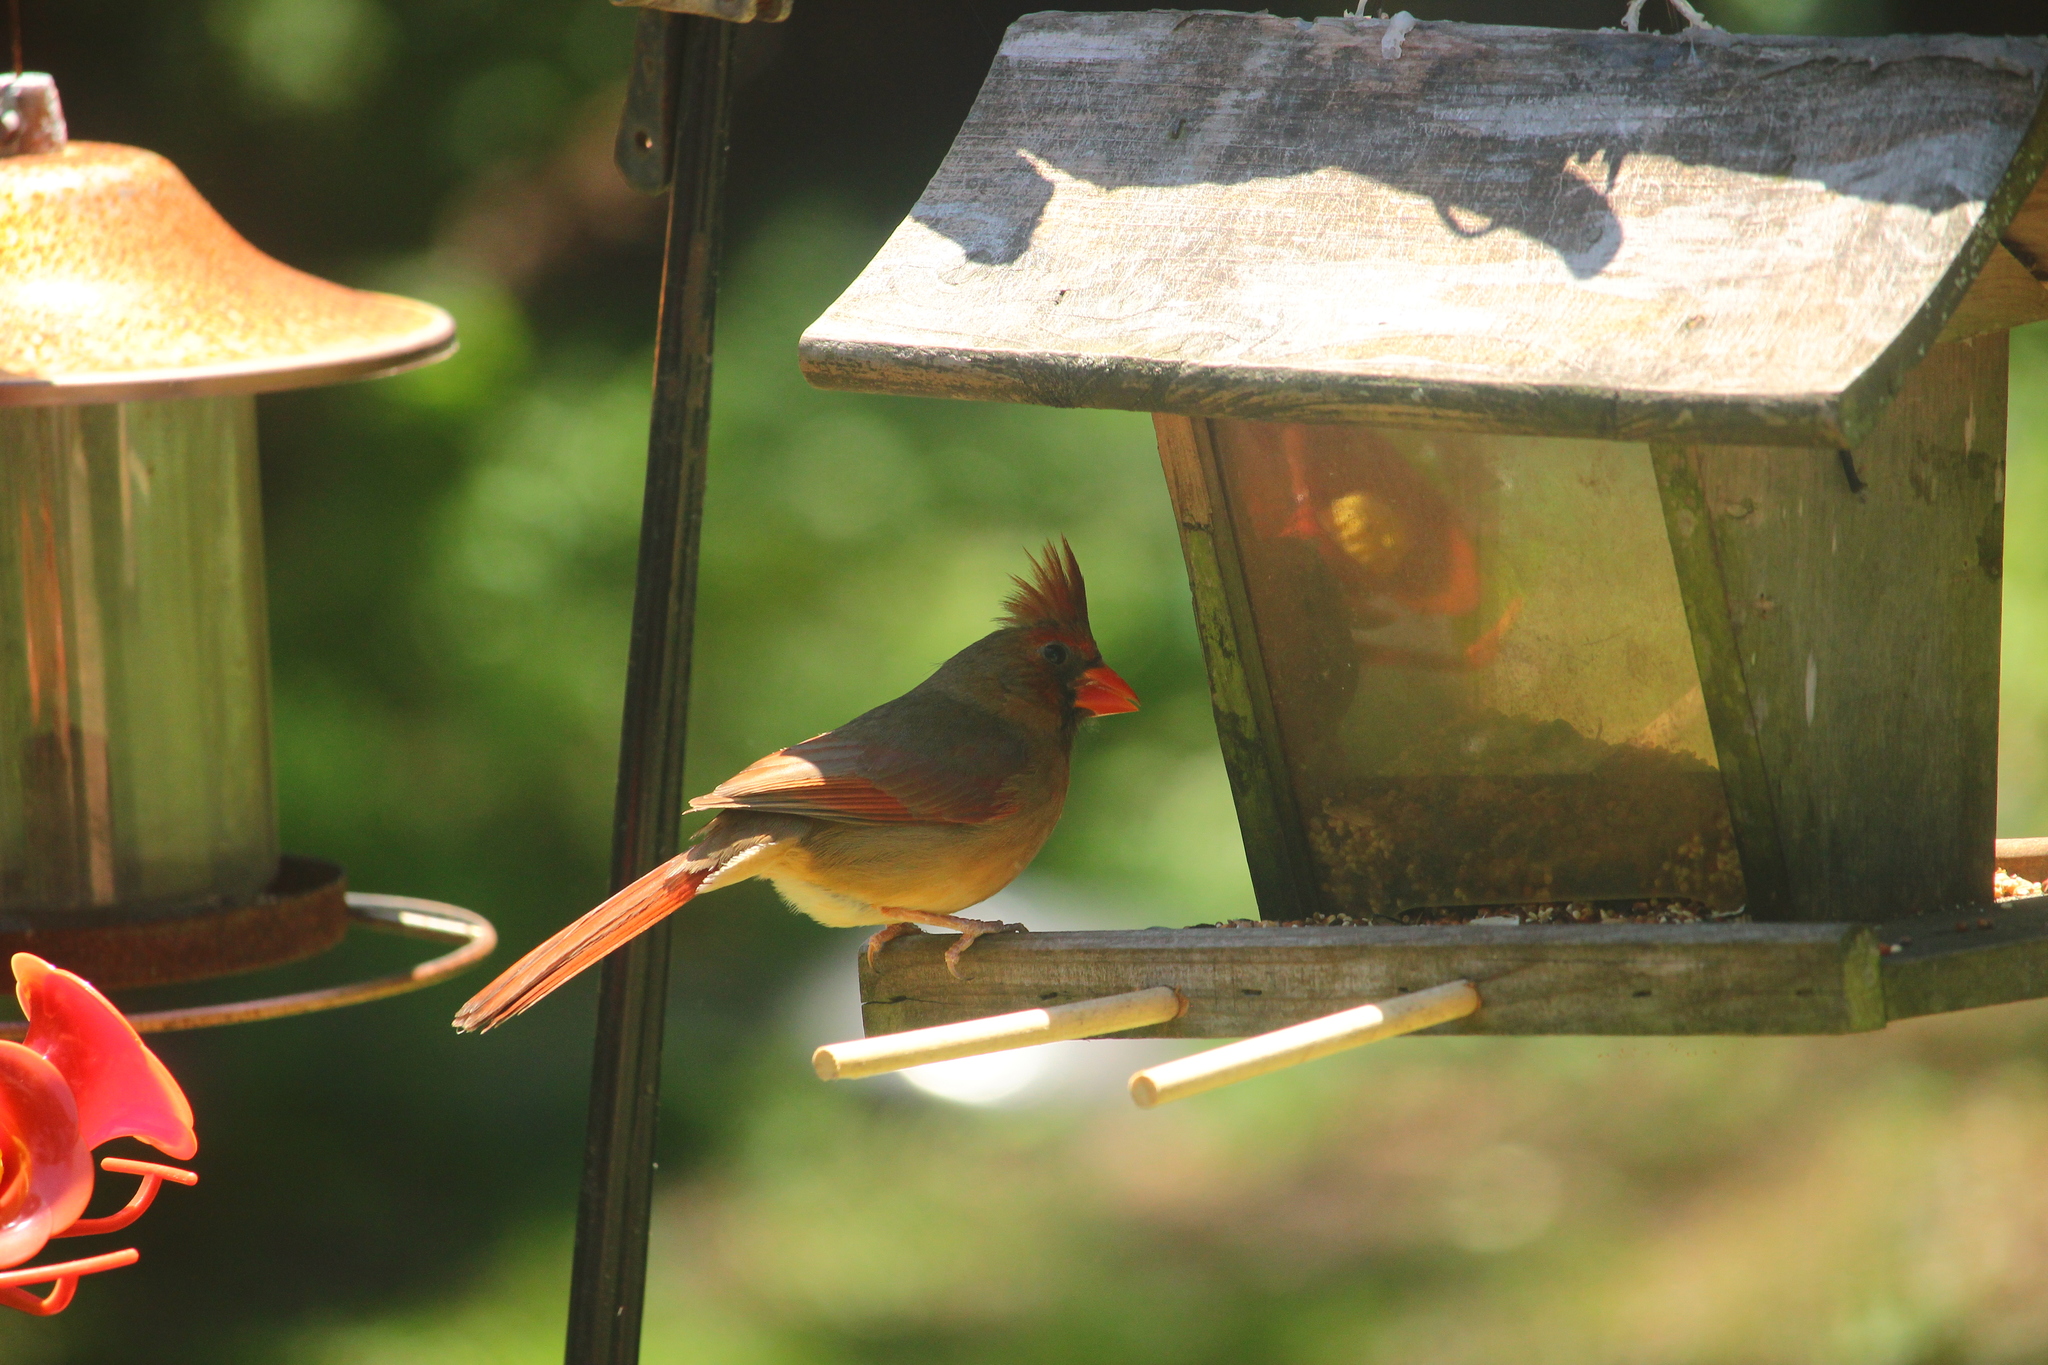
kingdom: Animalia
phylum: Chordata
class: Aves
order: Passeriformes
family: Cardinalidae
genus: Cardinalis
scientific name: Cardinalis cardinalis
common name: Northern cardinal
